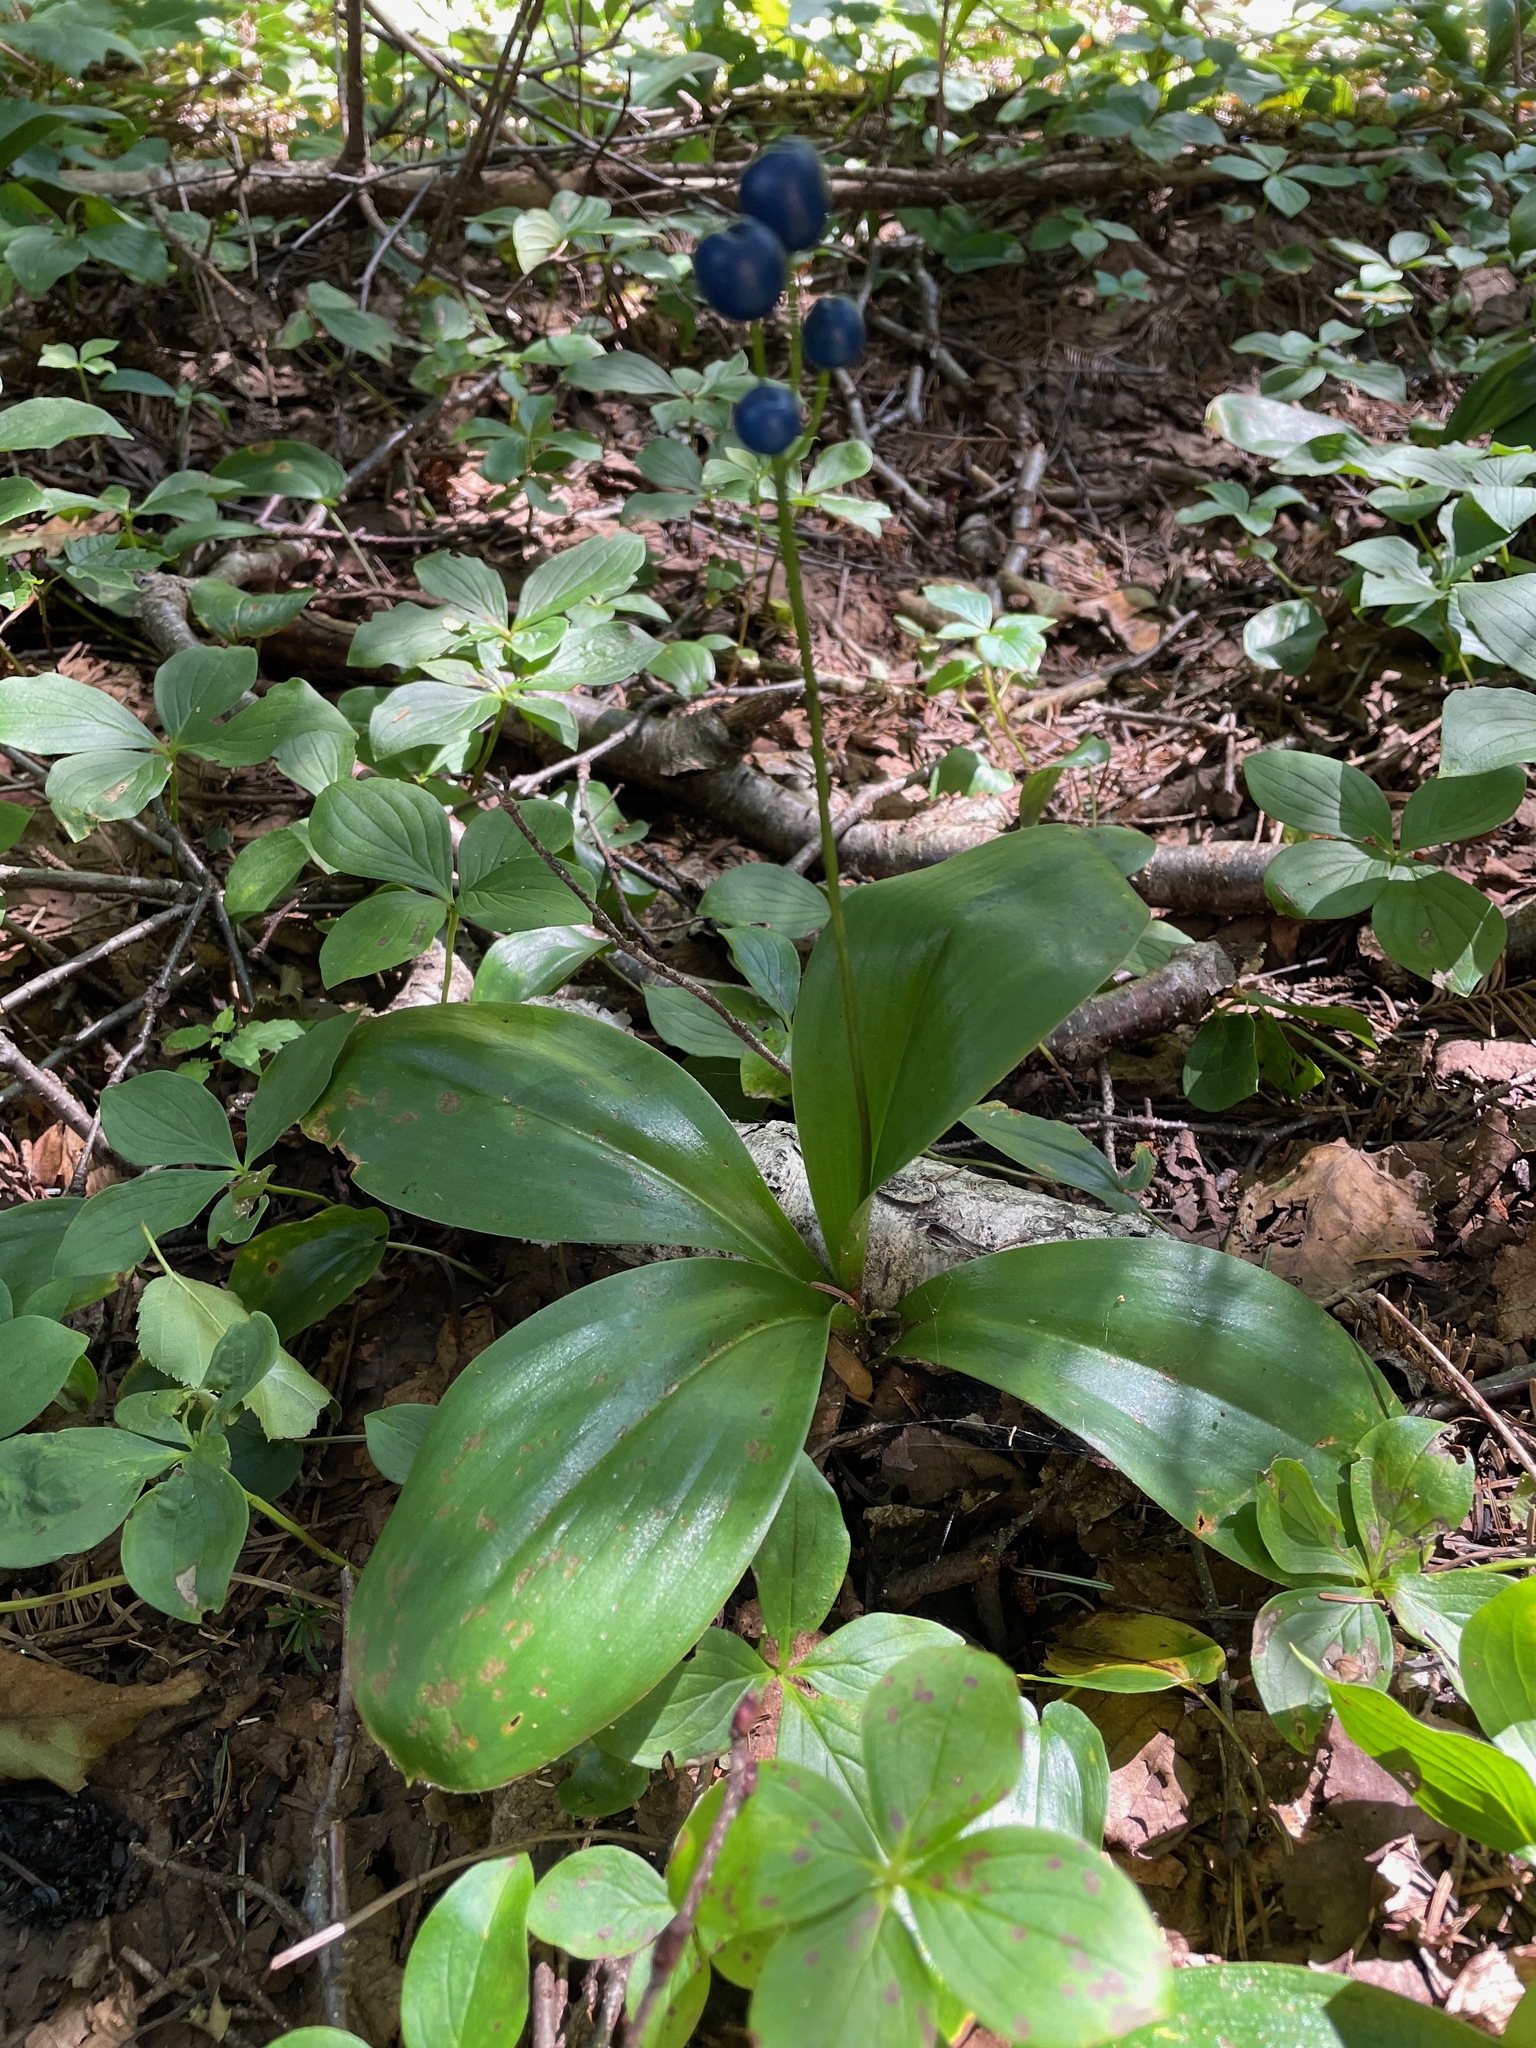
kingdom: Plantae
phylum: Tracheophyta
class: Liliopsida
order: Liliales
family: Liliaceae
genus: Clintonia
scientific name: Clintonia borealis
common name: Yellow clintonia
